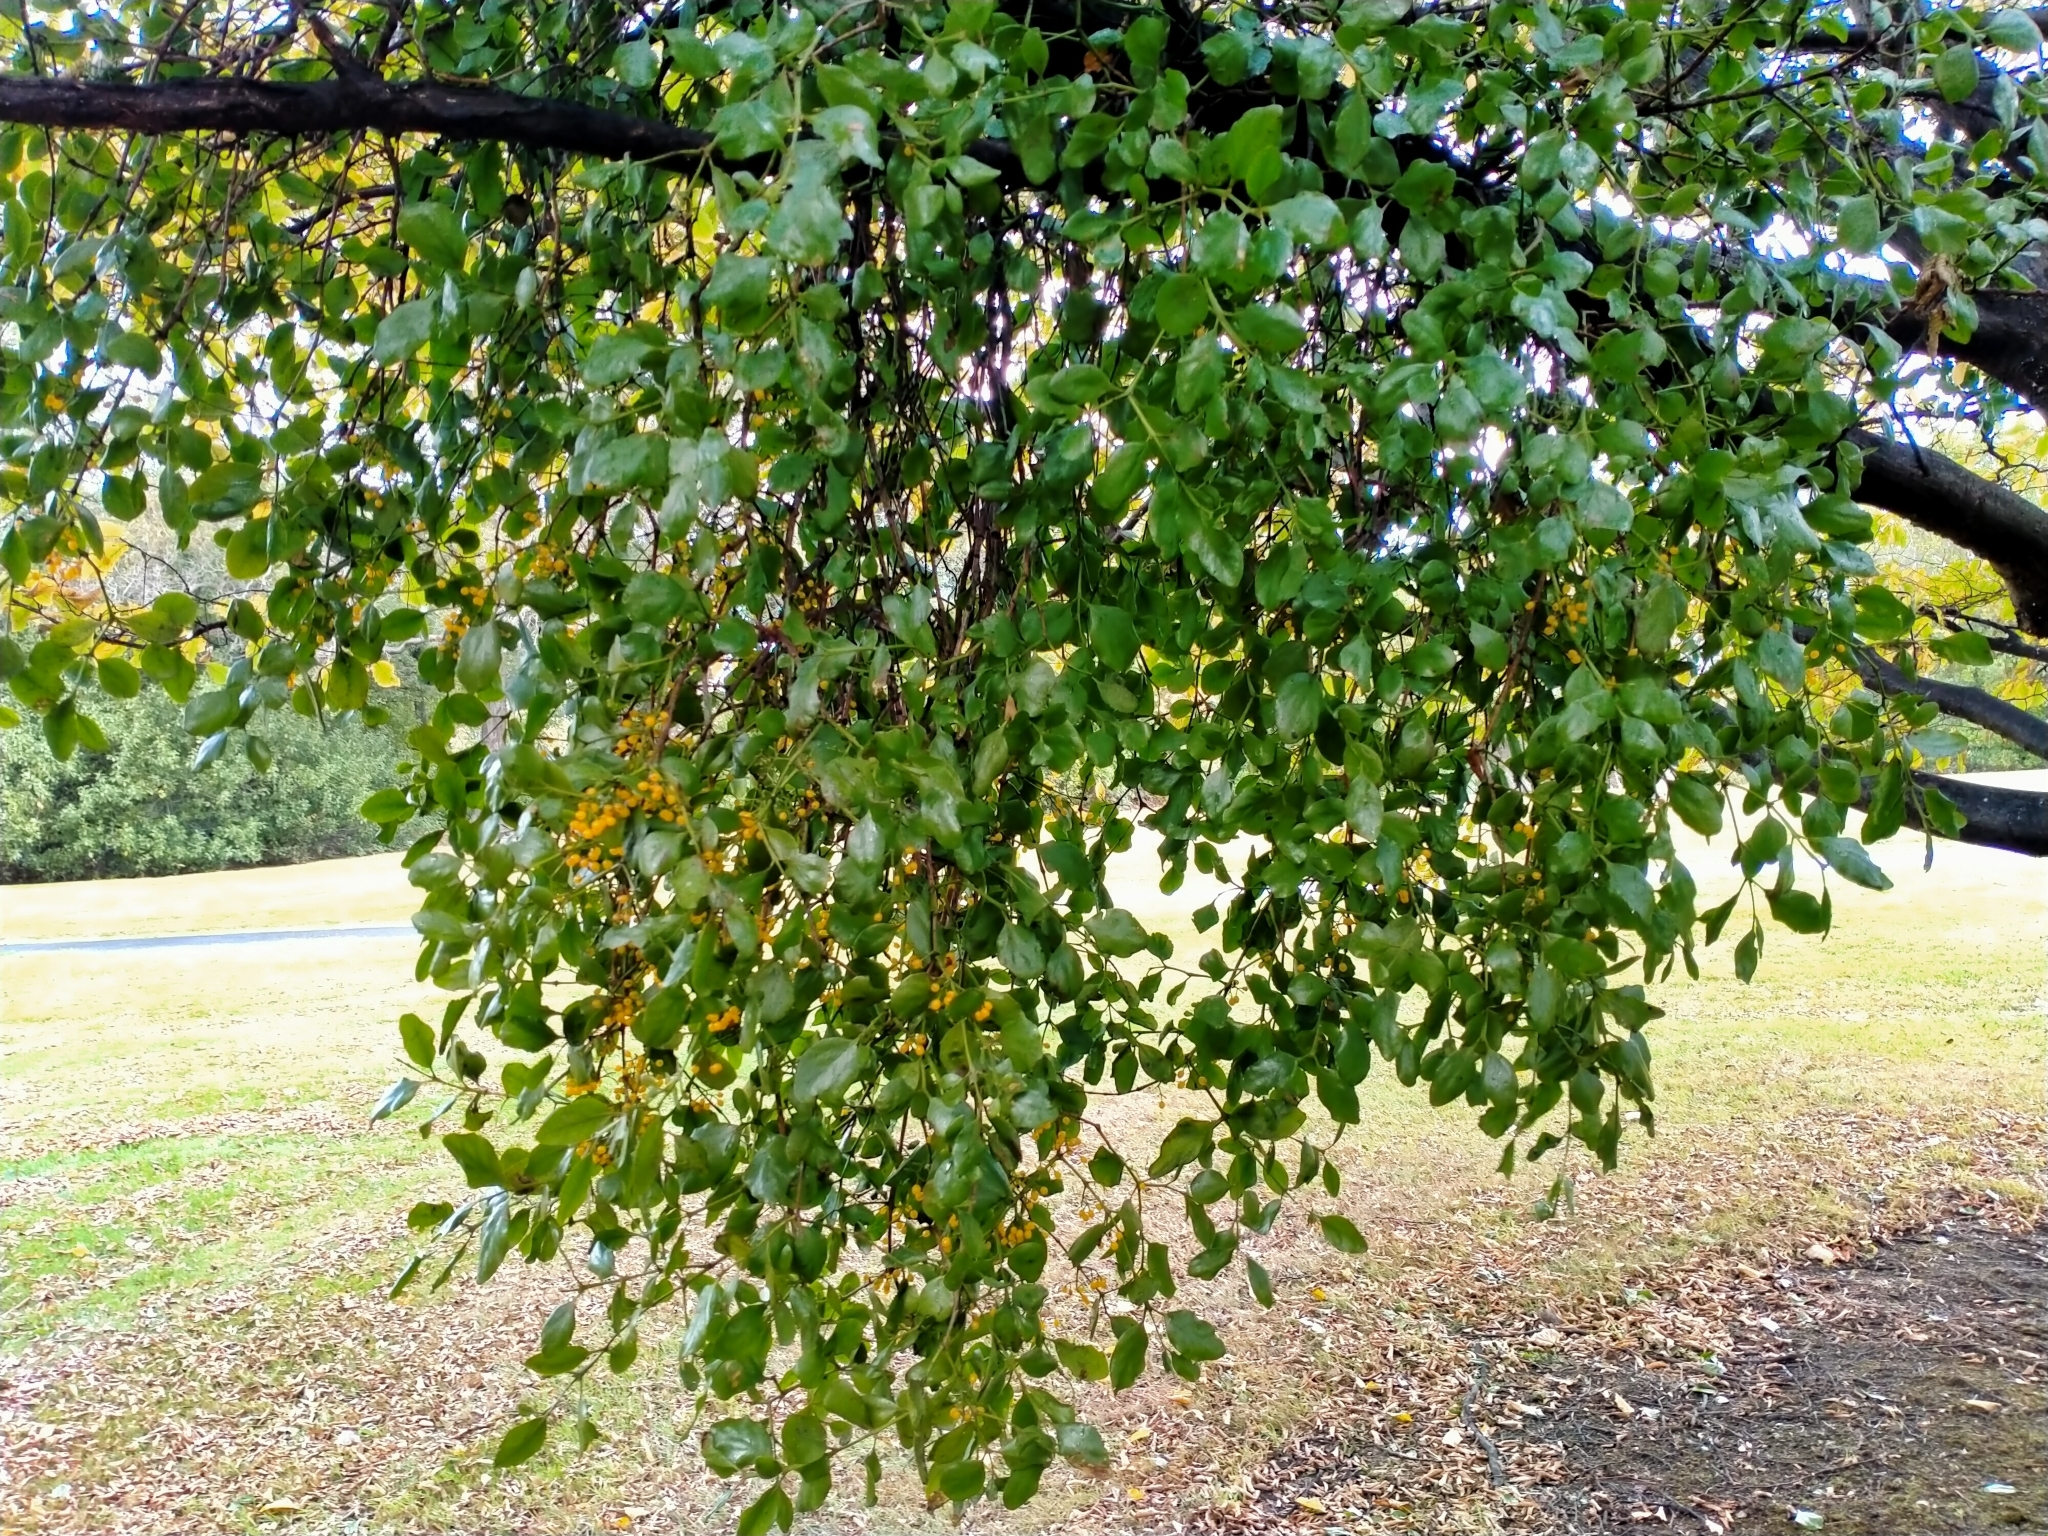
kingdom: Plantae
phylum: Tracheophyta
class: Magnoliopsida
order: Santalales
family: Loranthaceae
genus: Ileostylus
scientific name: Ileostylus micranthus
